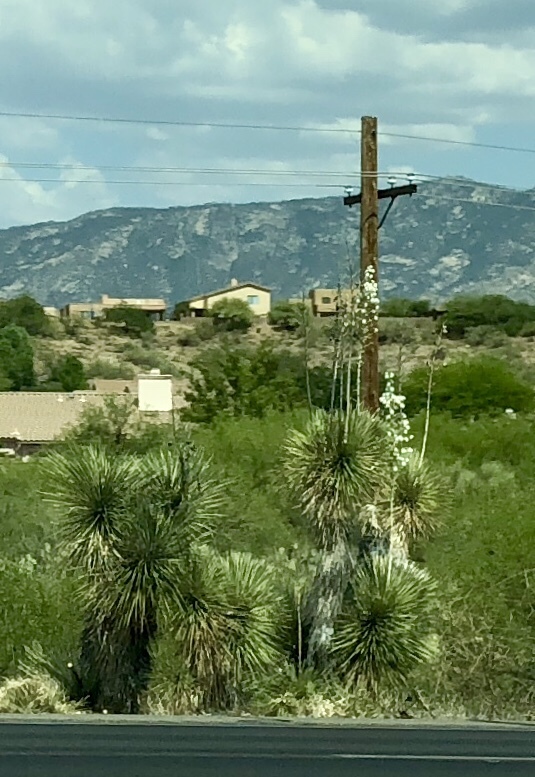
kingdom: Plantae
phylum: Tracheophyta
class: Liliopsida
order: Asparagales
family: Asparagaceae
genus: Yucca
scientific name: Yucca elata
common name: Palmella
